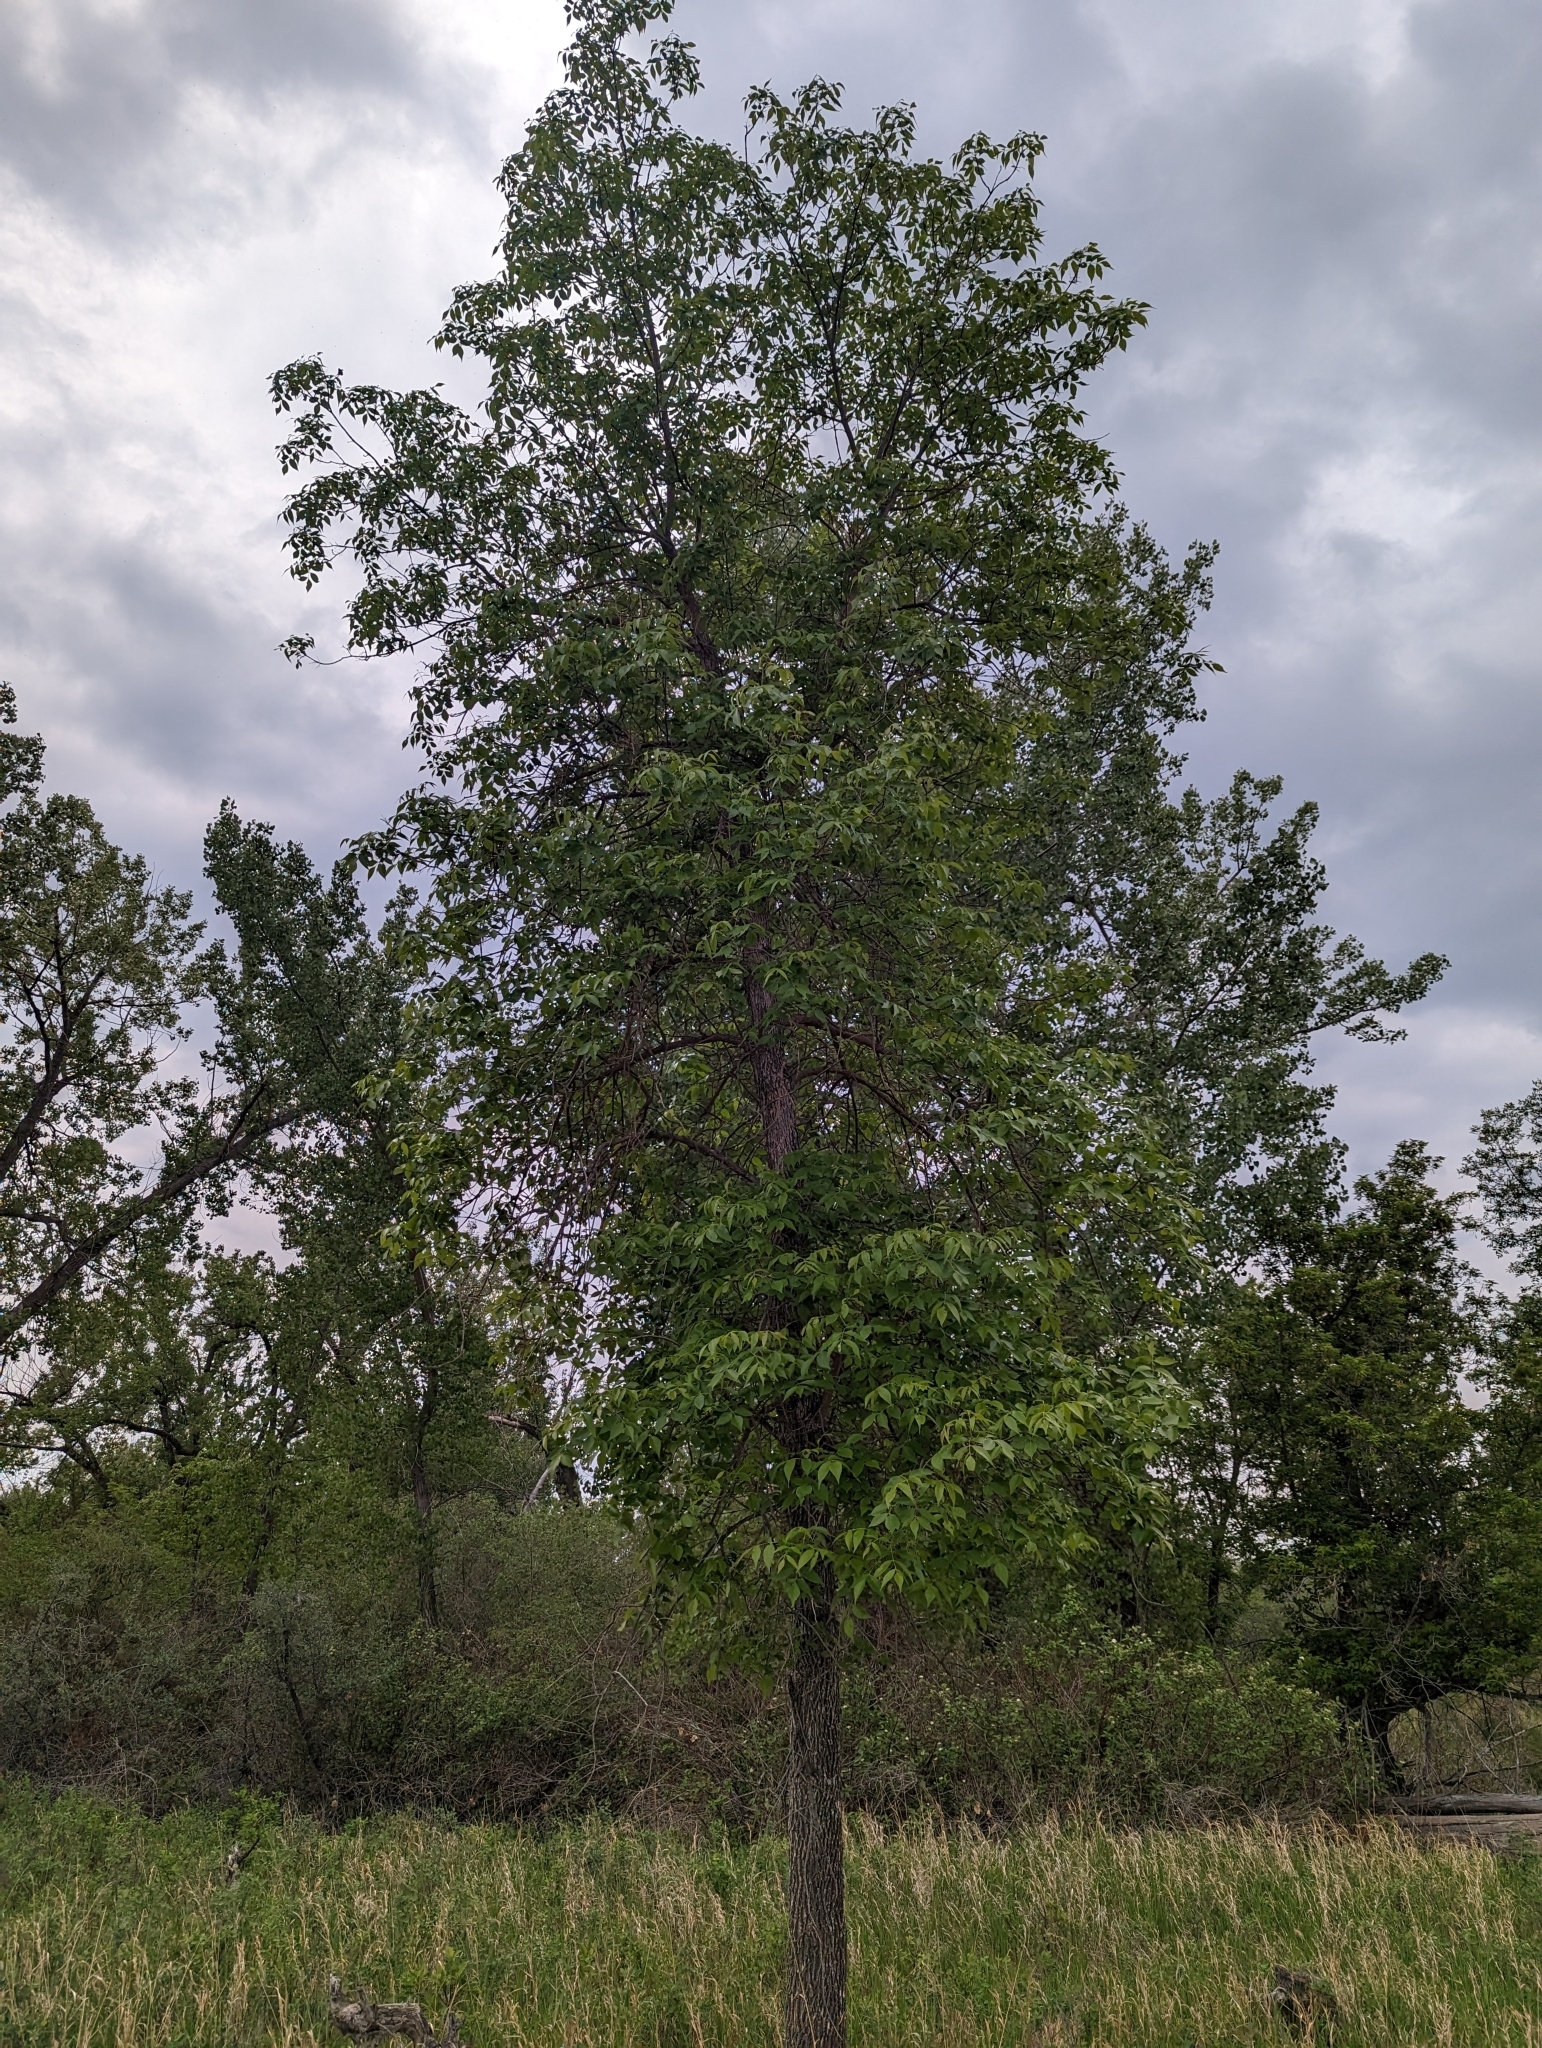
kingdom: Plantae
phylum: Tracheophyta
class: Magnoliopsida
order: Lamiales
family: Oleaceae
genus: Fraxinus
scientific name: Fraxinus pennsylvanica
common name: Green ash
